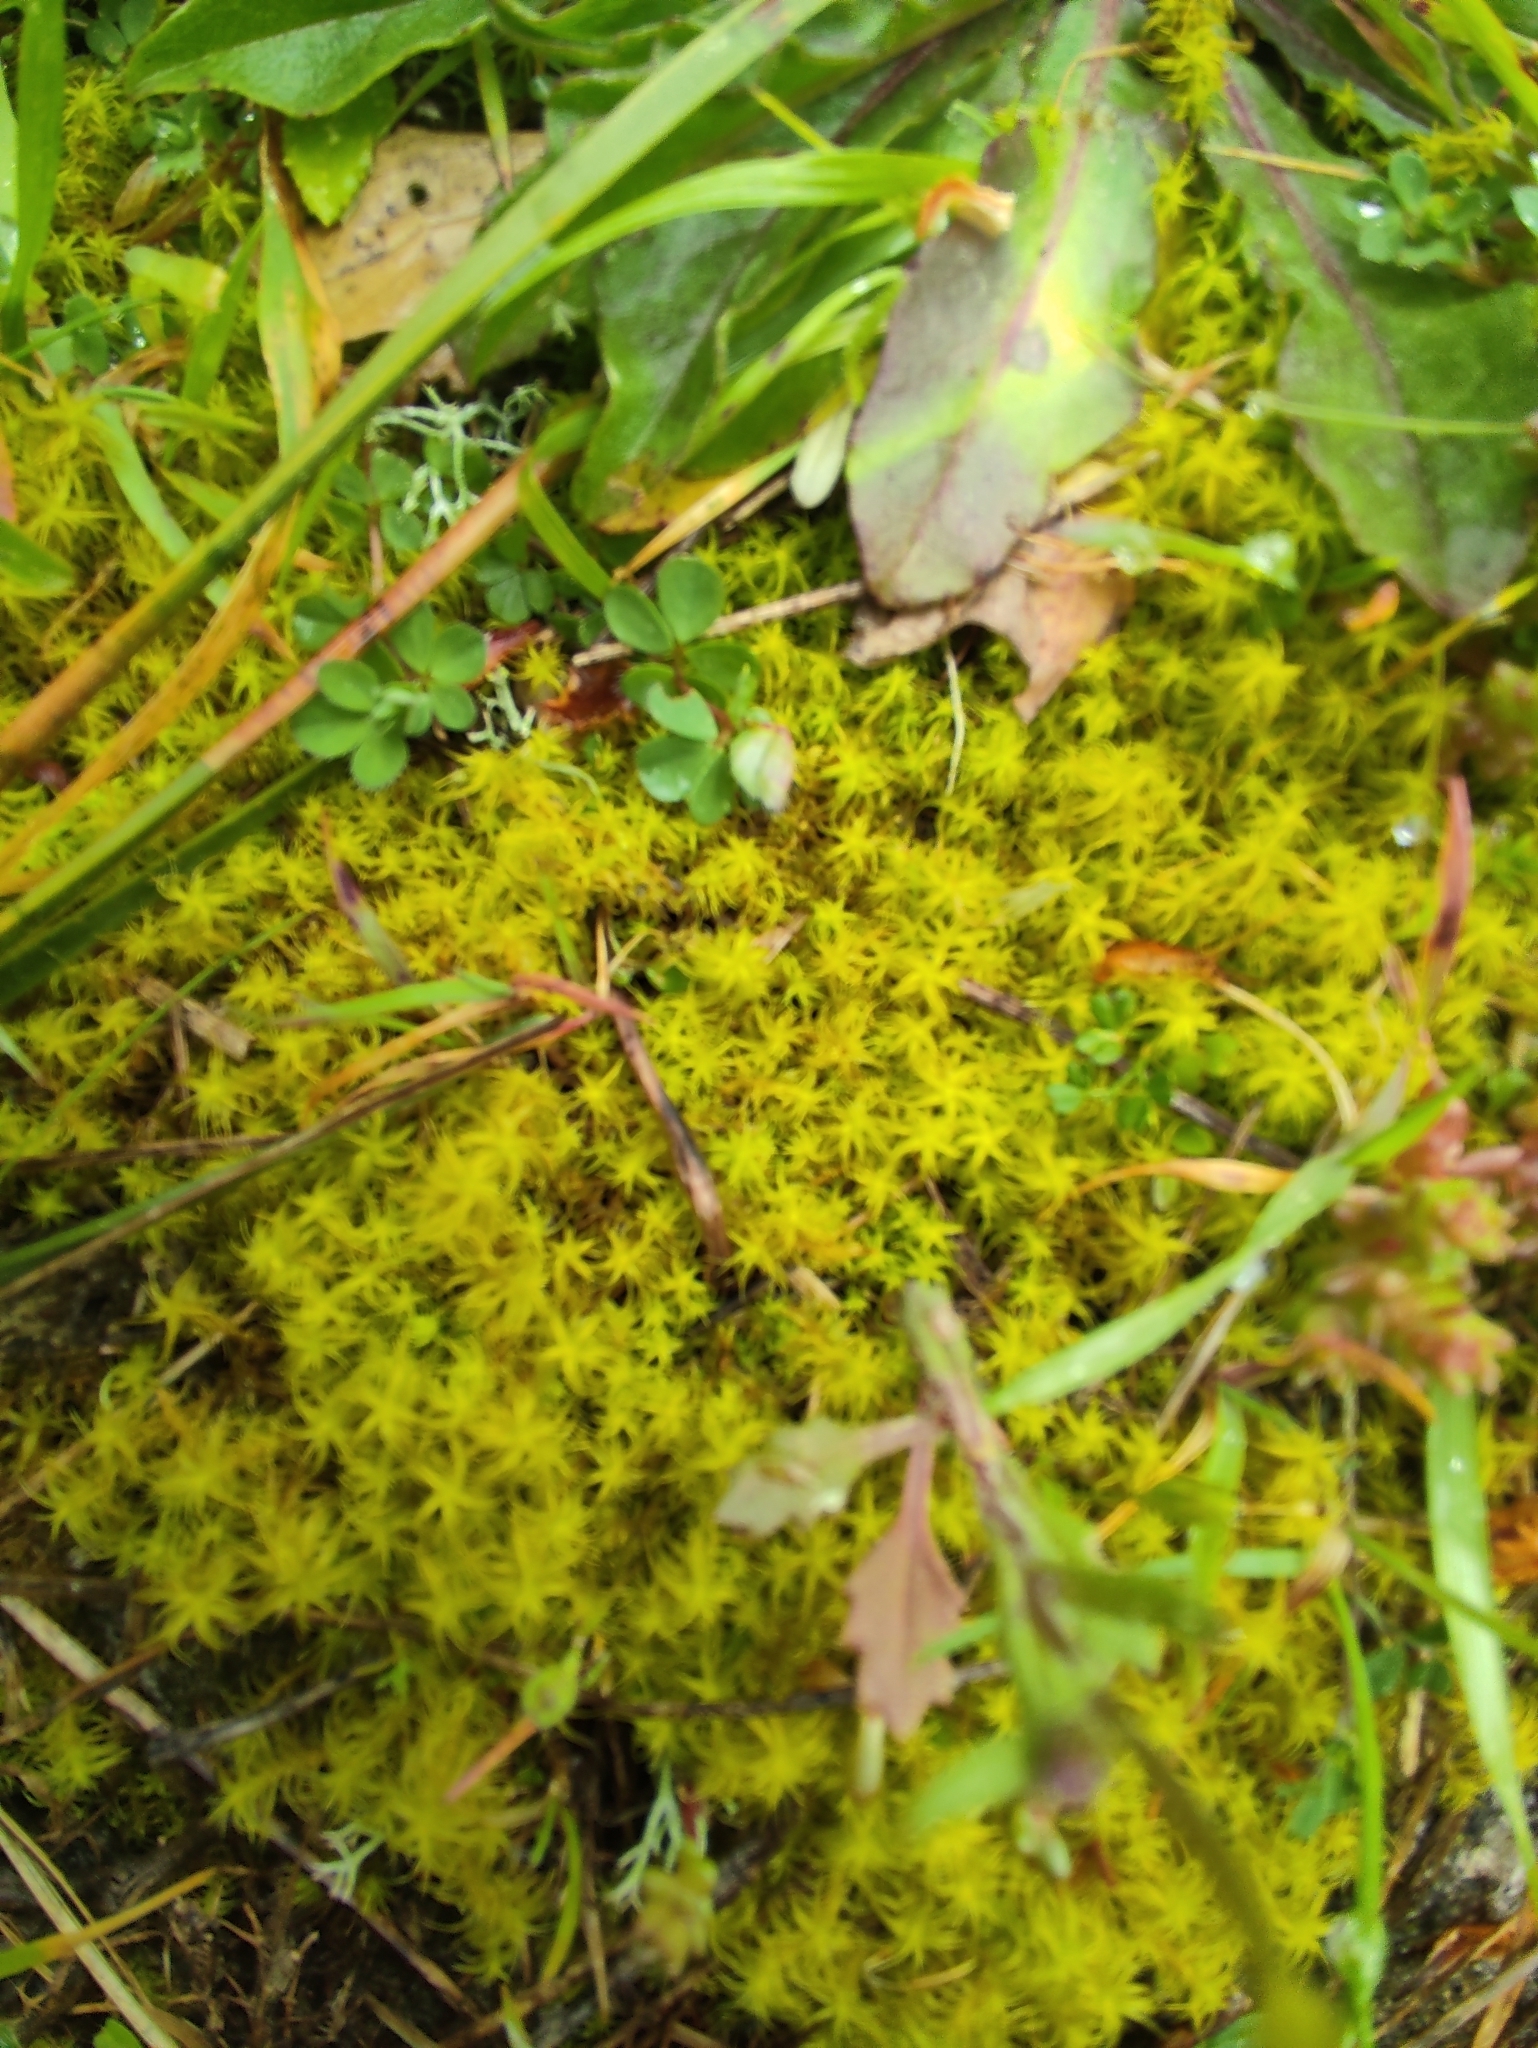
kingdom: Plantae
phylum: Bryophyta
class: Bryopsida
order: Pottiales
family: Pottiaceae
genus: Pleurochaete
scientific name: Pleurochaete squarrosa
